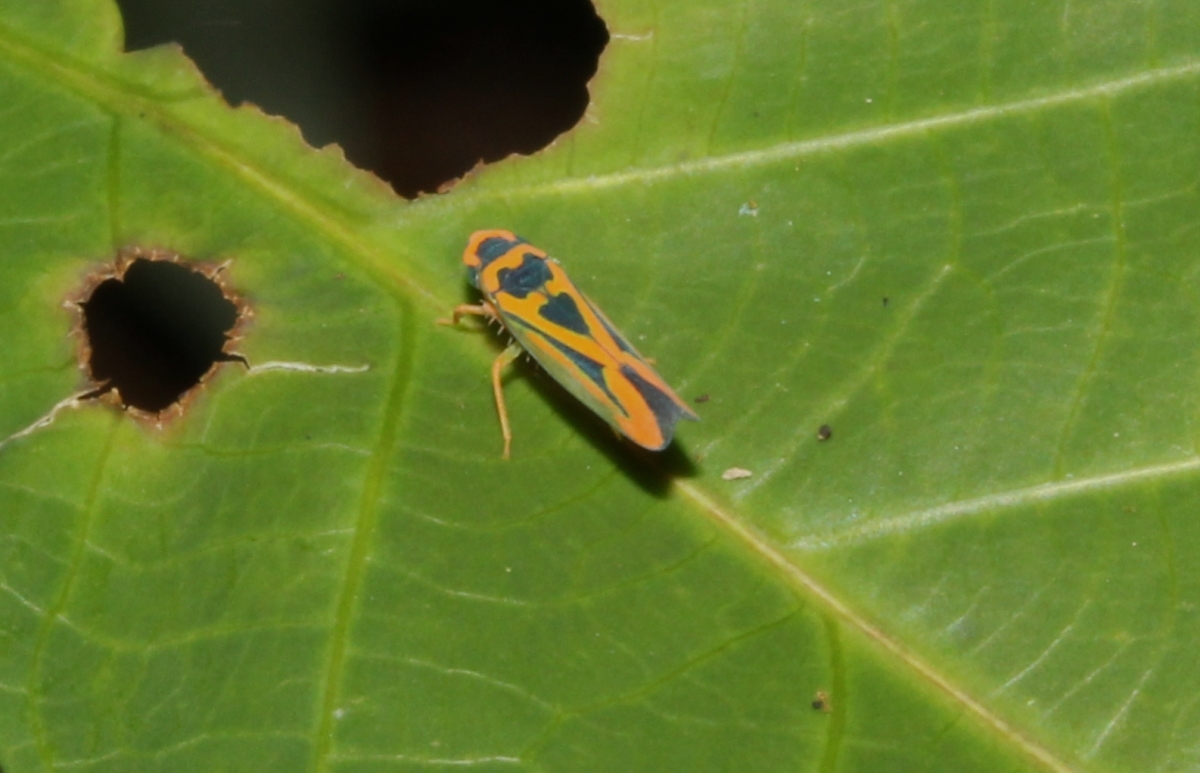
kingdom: Animalia
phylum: Arthropoda
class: Insecta
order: Hemiptera
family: Cicadellidae
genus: Soosiulus
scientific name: Soosiulus azatus
